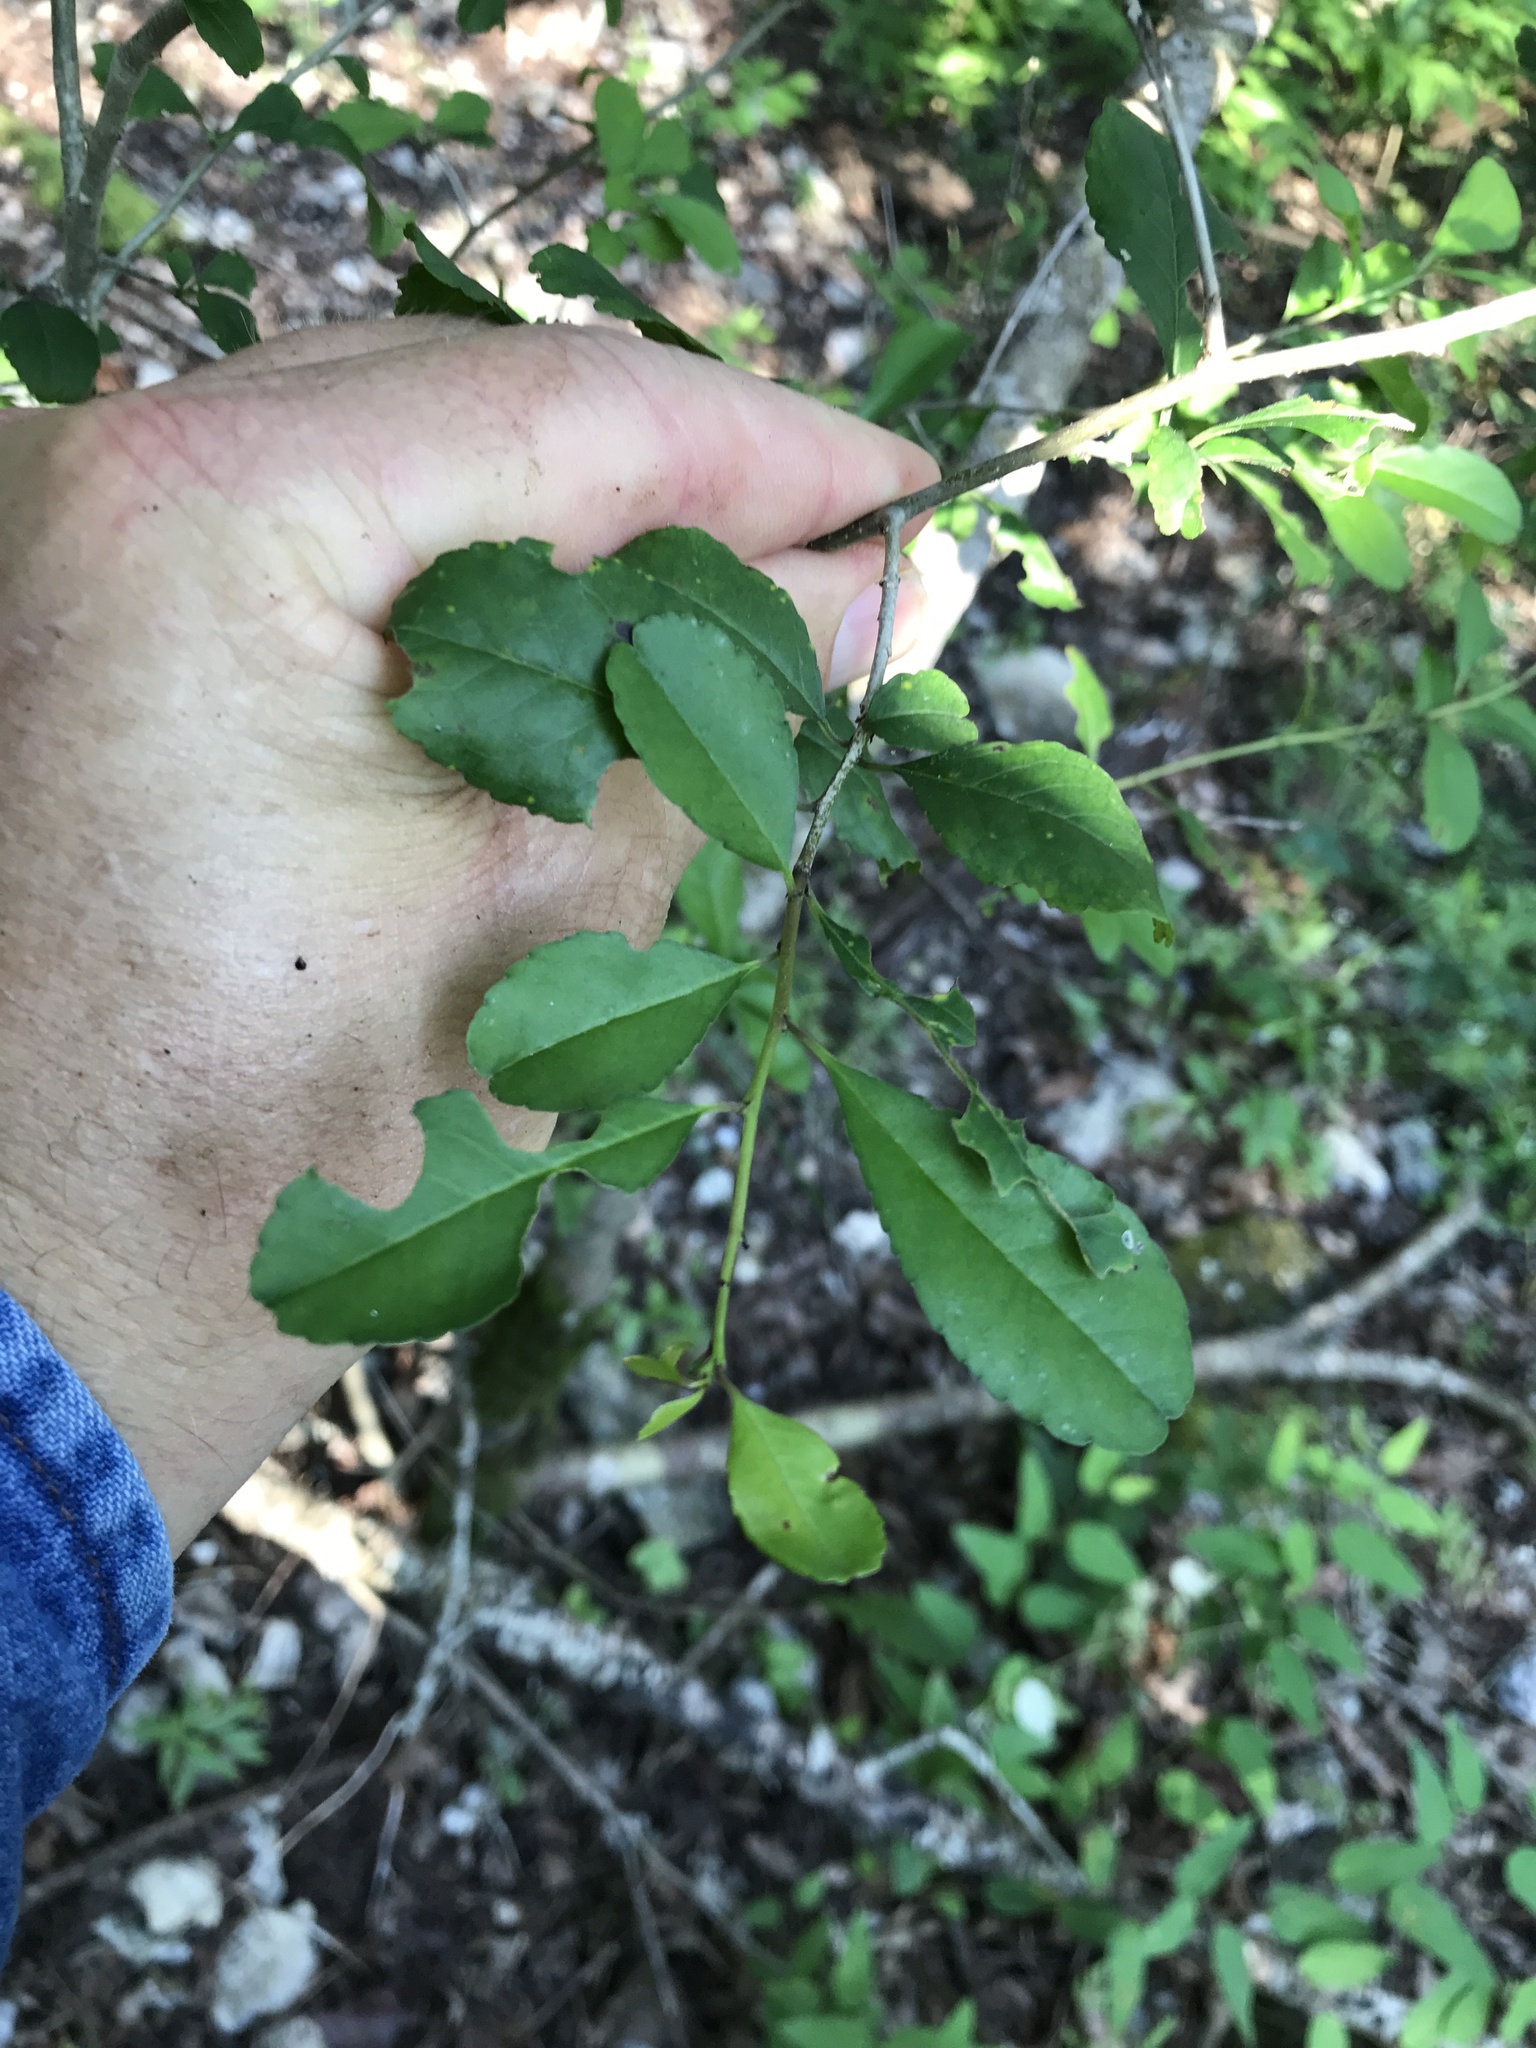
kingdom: Plantae
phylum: Tracheophyta
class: Magnoliopsida
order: Aquifoliales
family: Aquifoliaceae
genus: Ilex
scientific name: Ilex decidua
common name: Possum-haw
